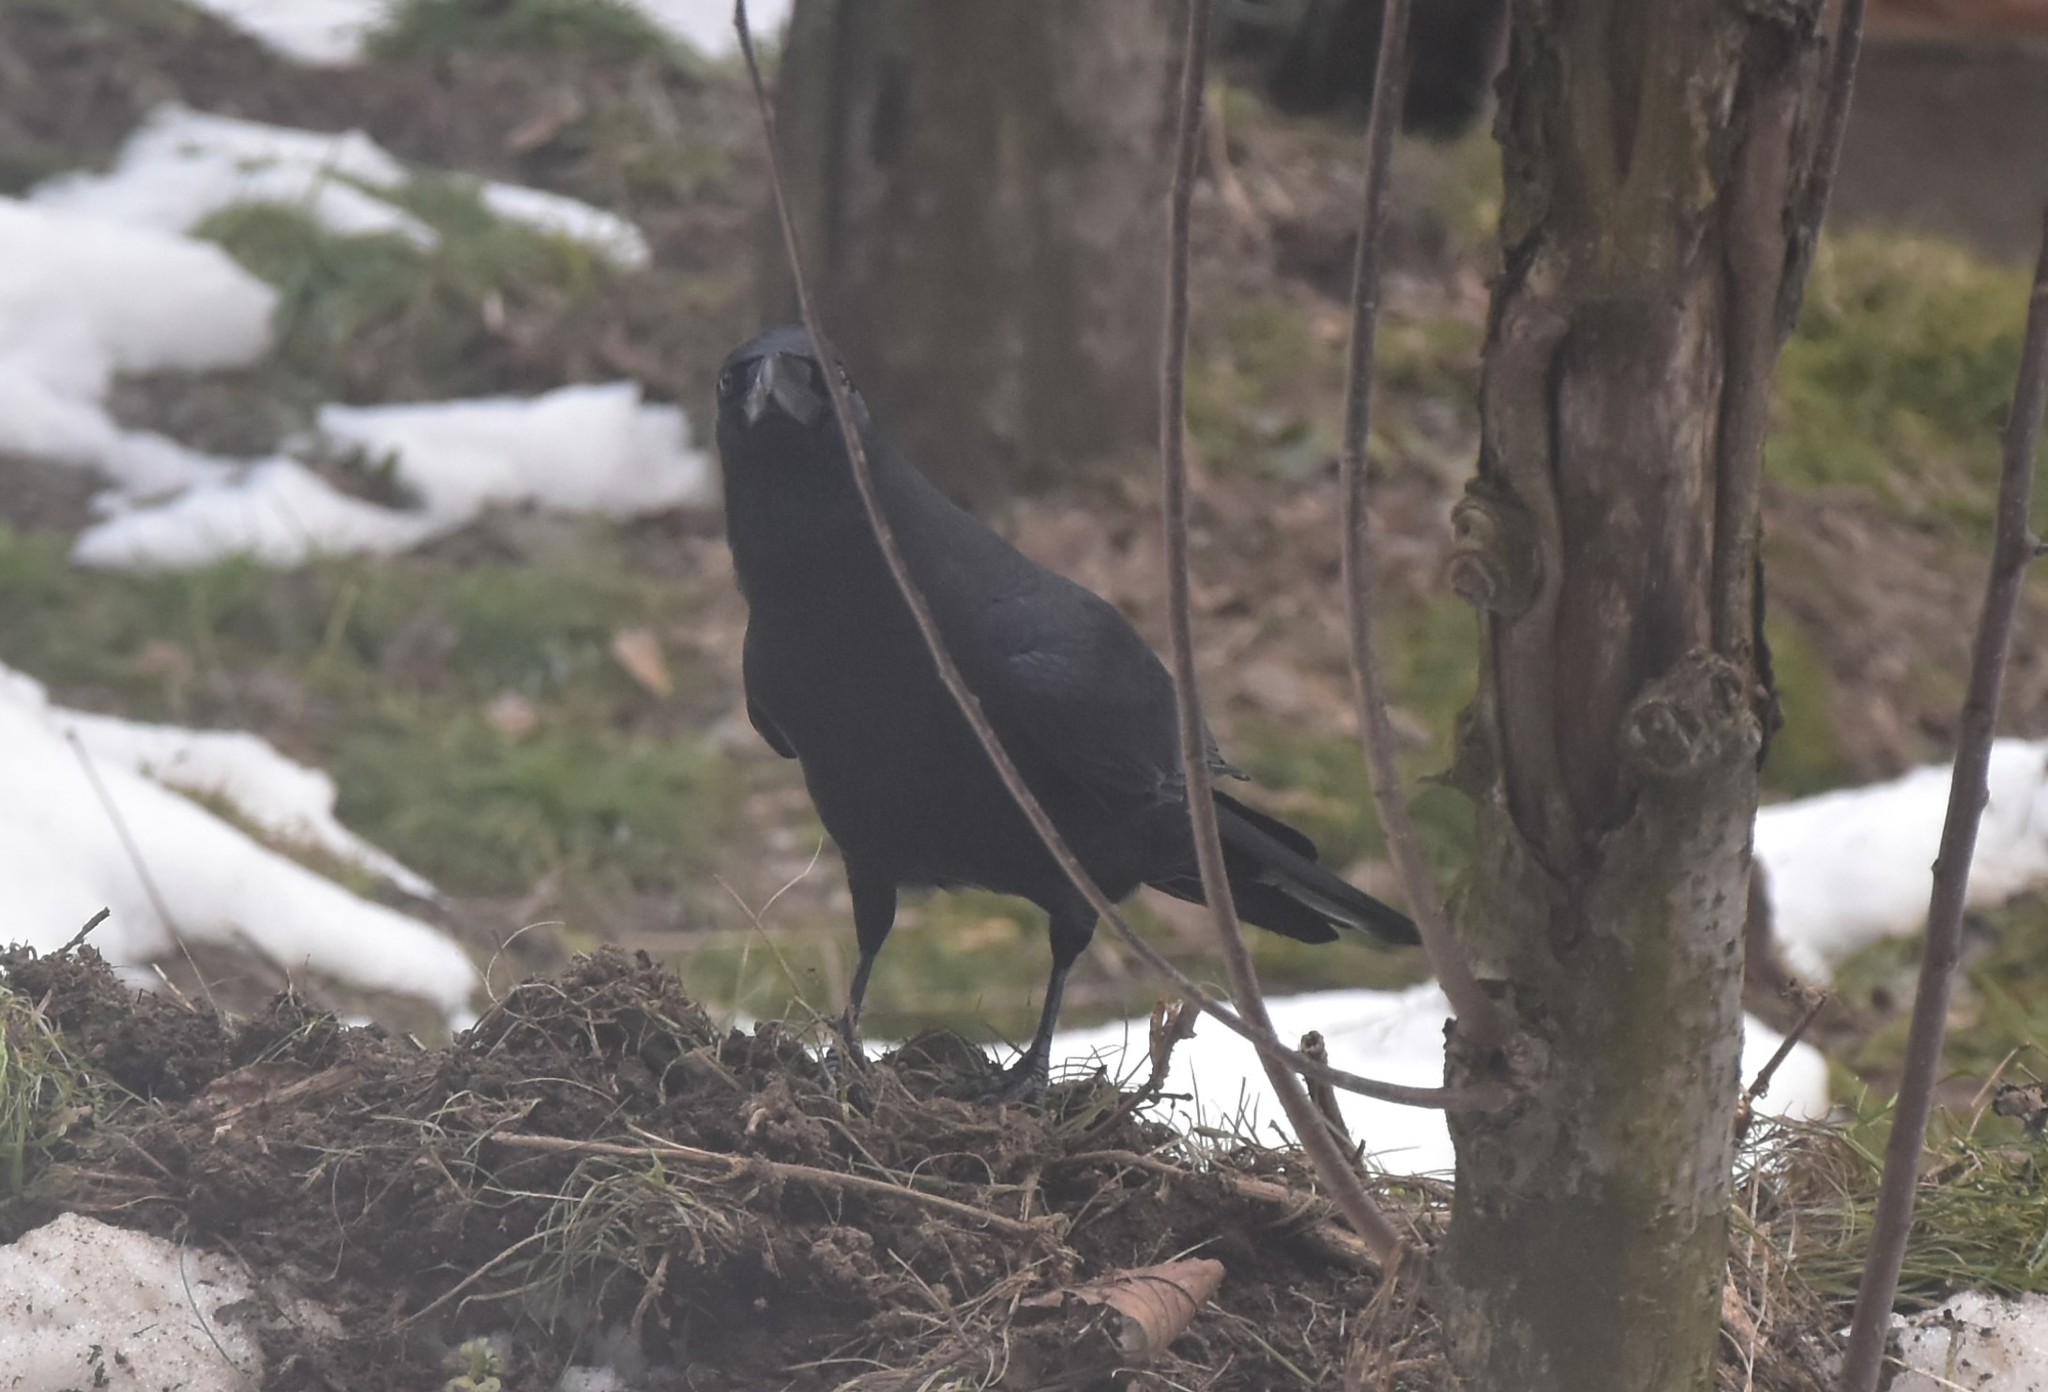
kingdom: Animalia
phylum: Chordata
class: Aves
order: Passeriformes
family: Corvidae
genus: Corvus
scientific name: Corvus macrorhynchos
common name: Large-billed crow
